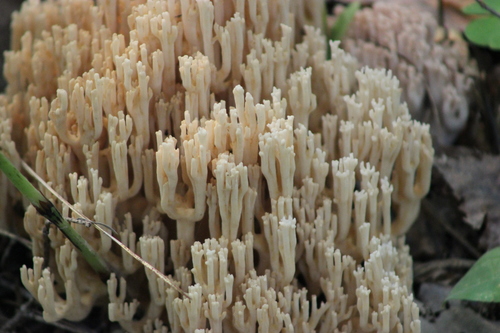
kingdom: Fungi
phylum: Basidiomycota
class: Agaricomycetes
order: Gomphales
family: Gomphaceae
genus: Ramaria
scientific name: Ramaria pallida
